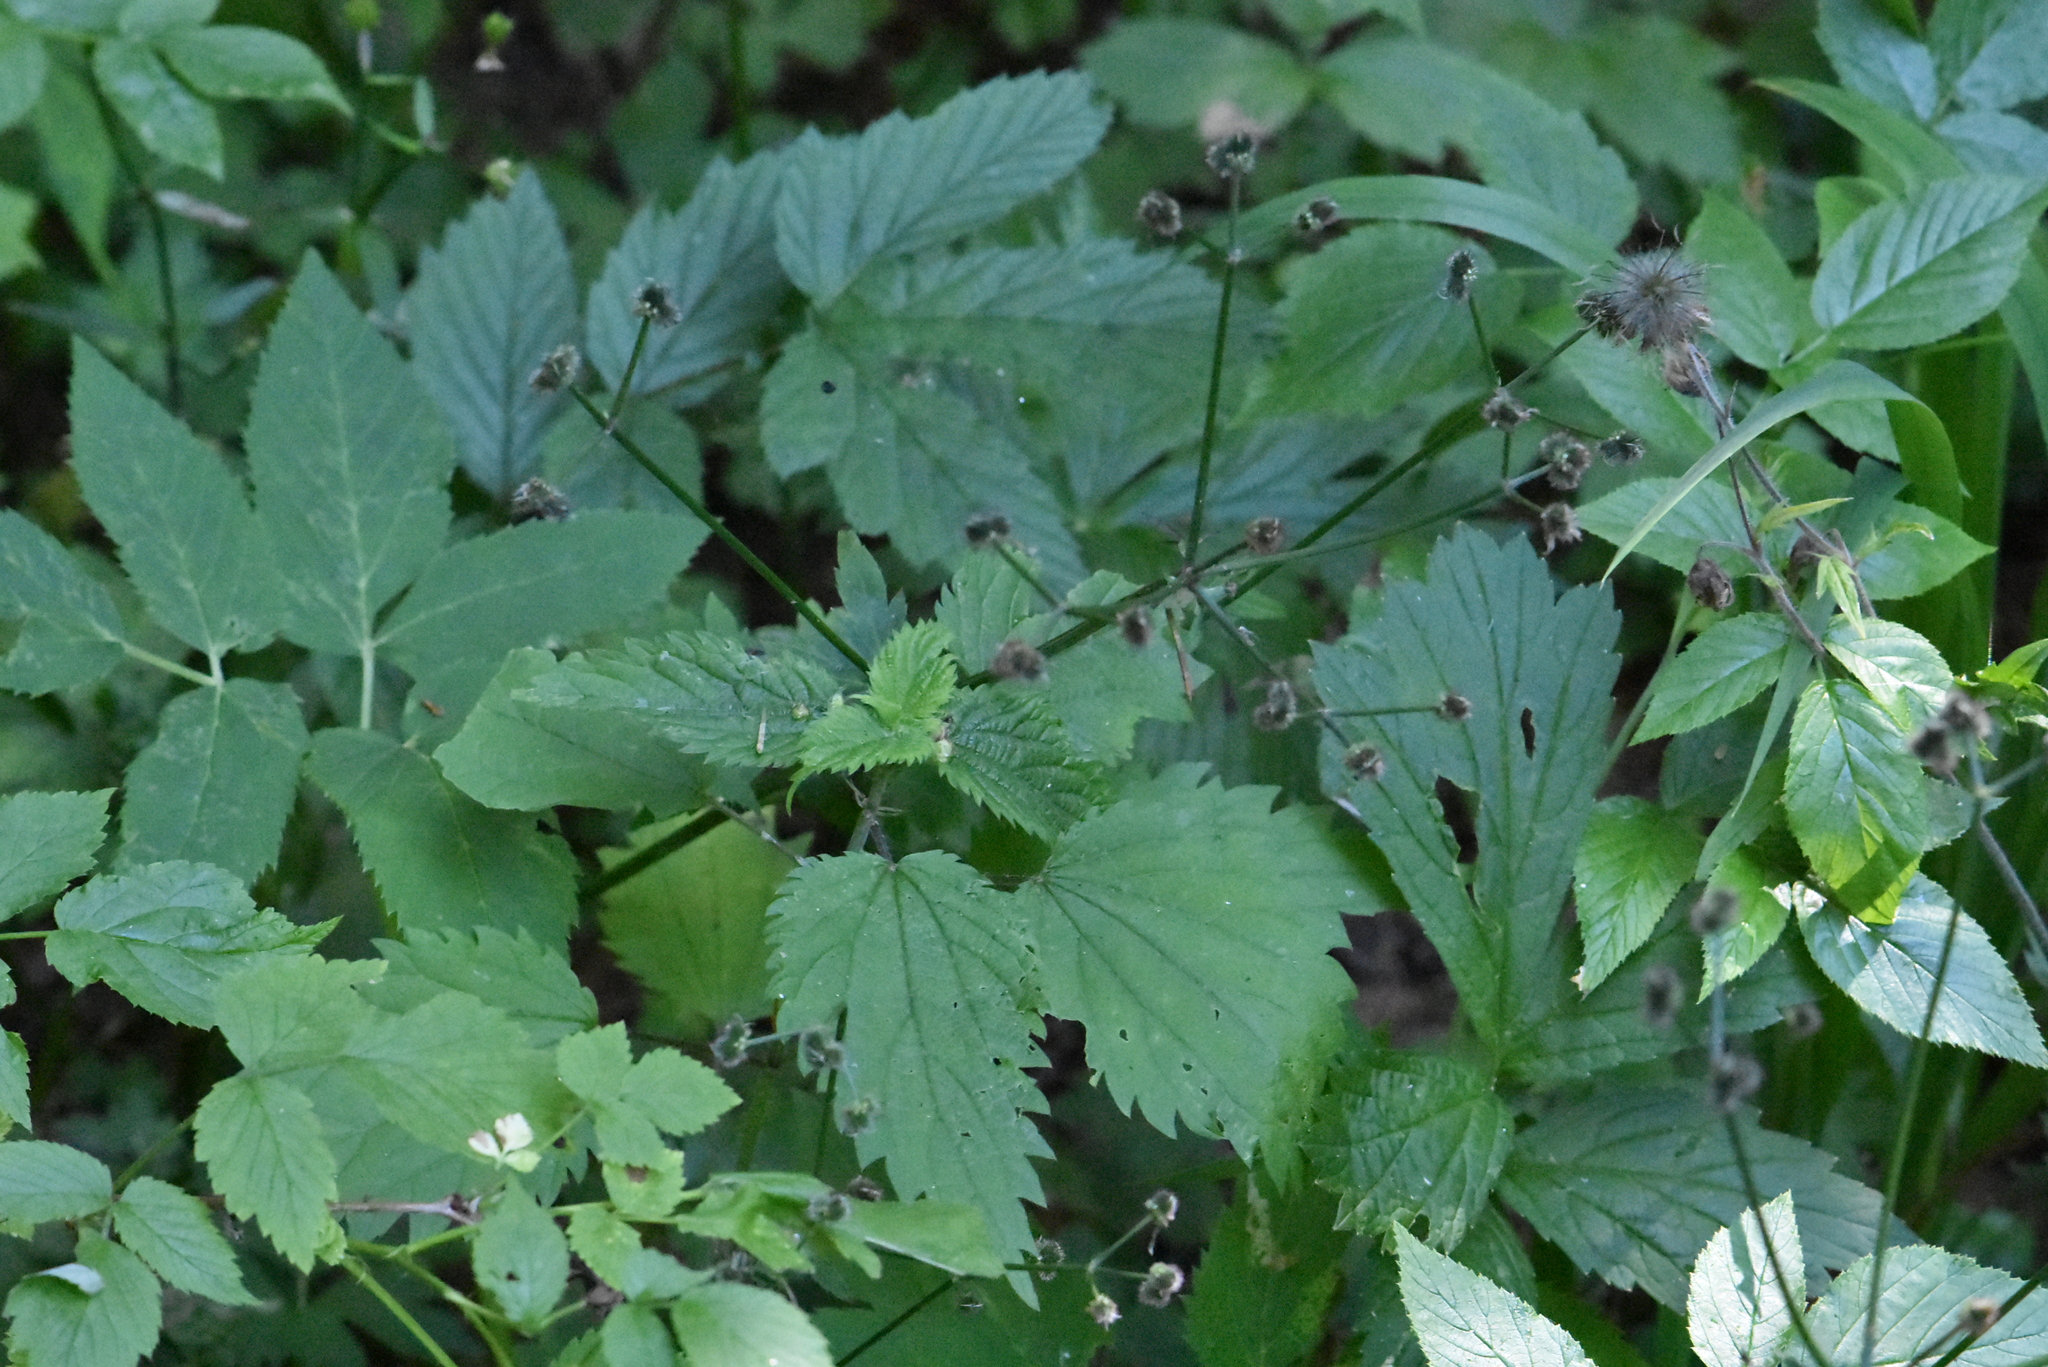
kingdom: Plantae
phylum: Tracheophyta
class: Magnoliopsida
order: Rosales
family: Rosaceae
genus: Geum
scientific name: Geum urbanum
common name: Wood avens
